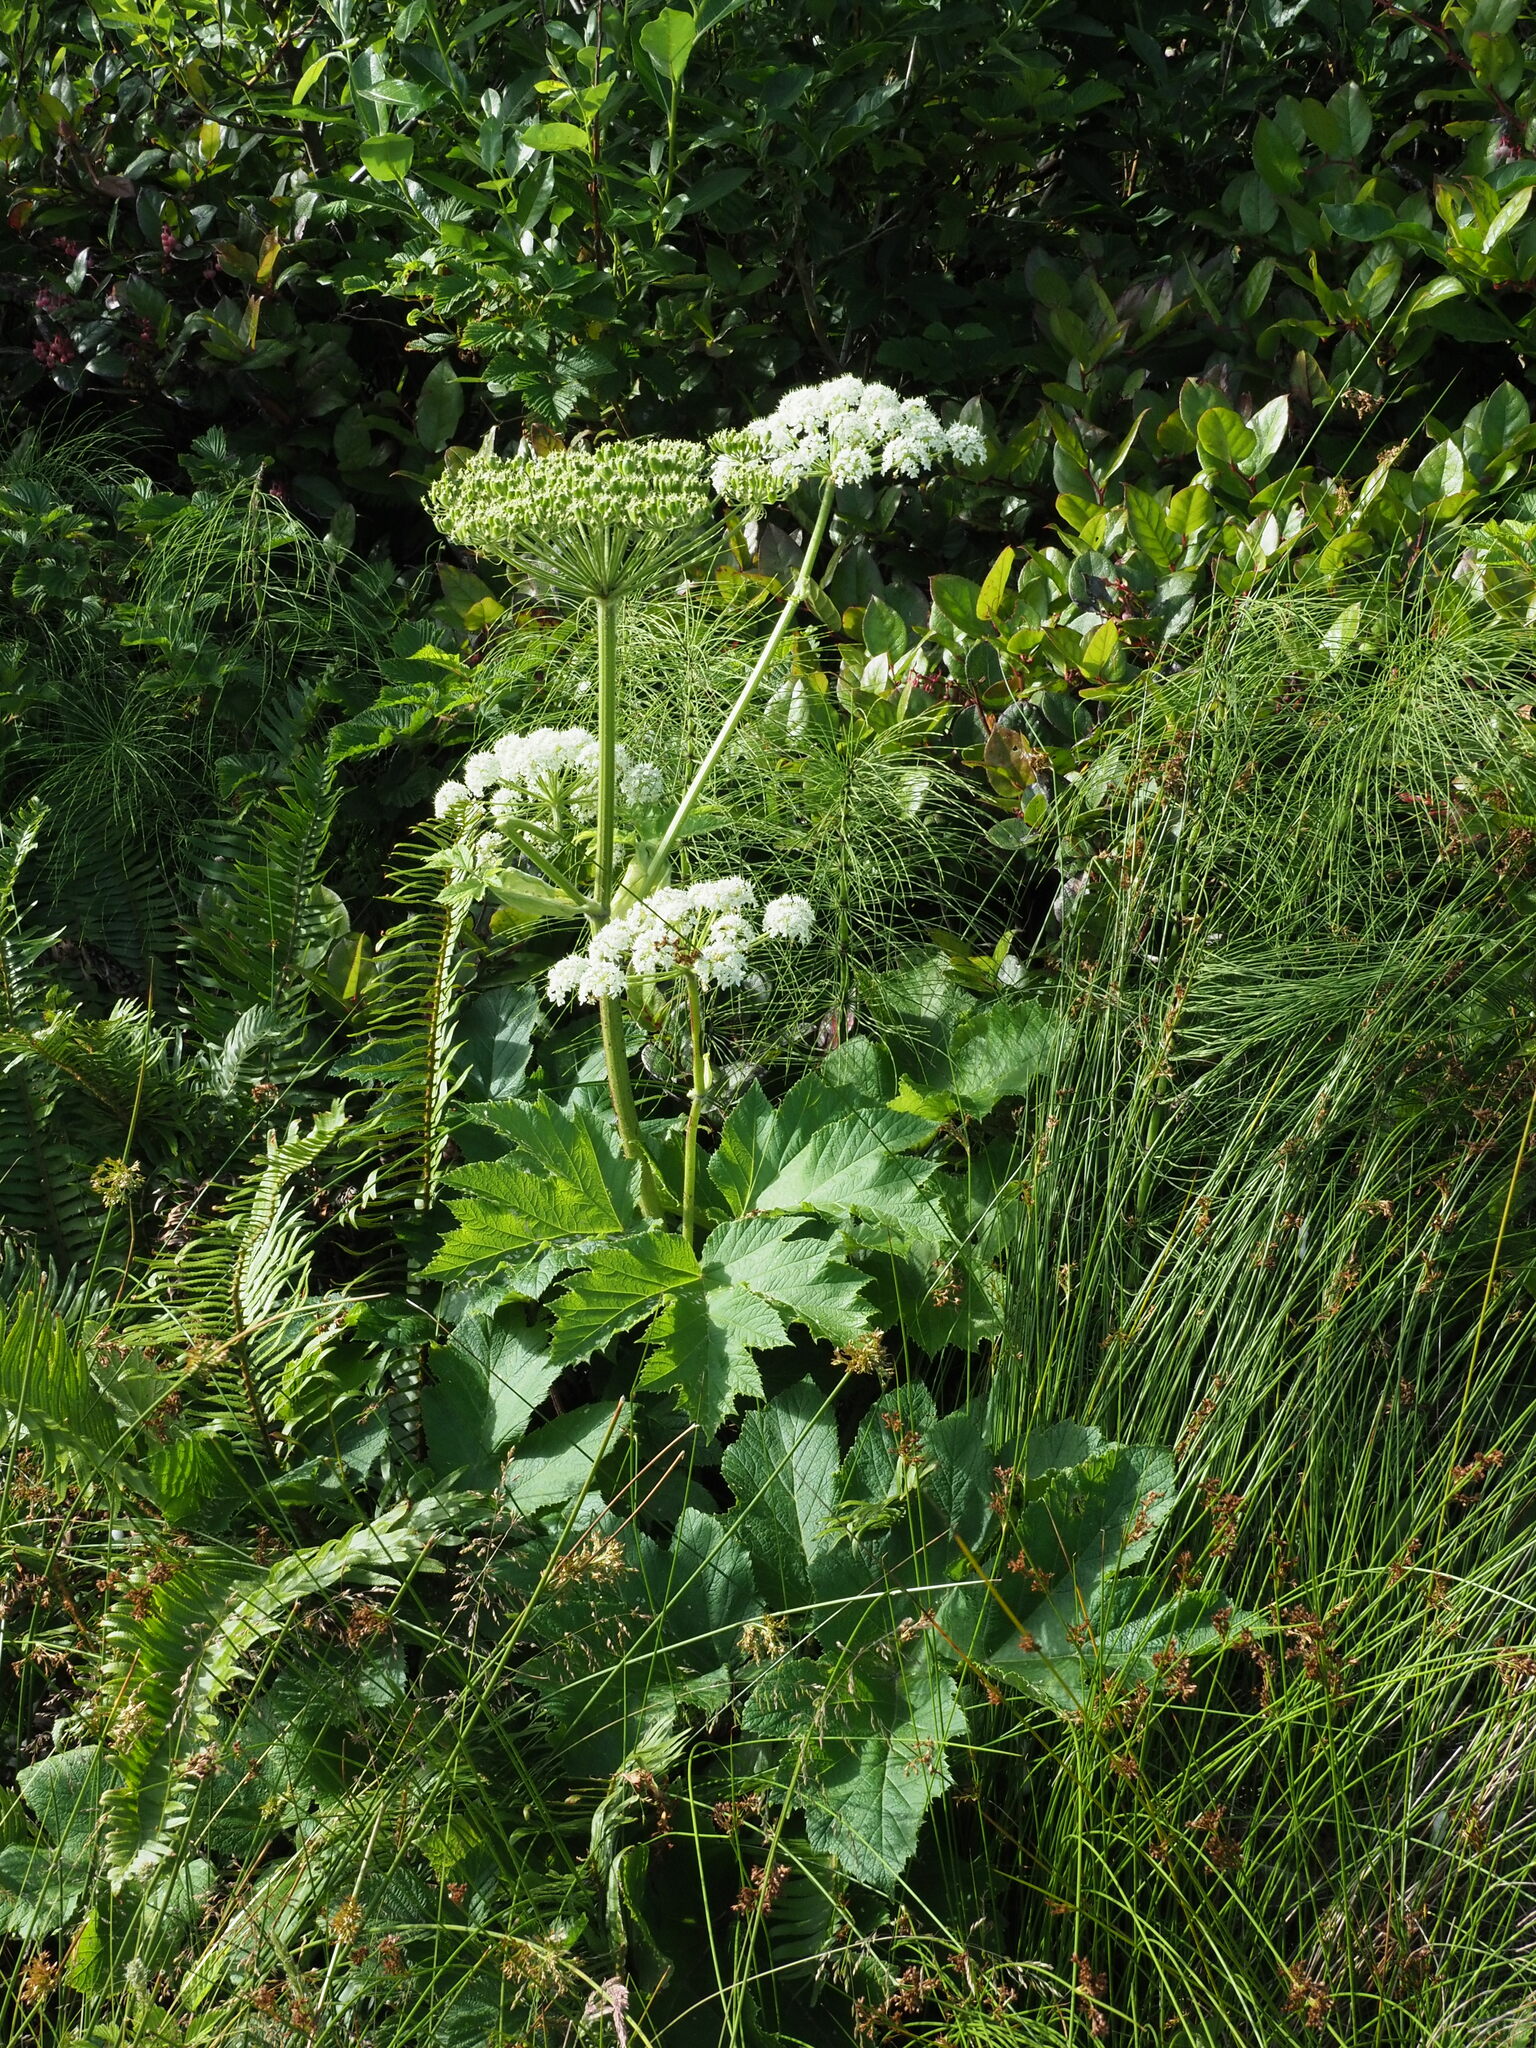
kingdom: Plantae
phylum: Tracheophyta
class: Magnoliopsida
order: Apiales
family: Apiaceae
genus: Heracleum
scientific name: Heracleum maximum
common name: American cow parsnip
